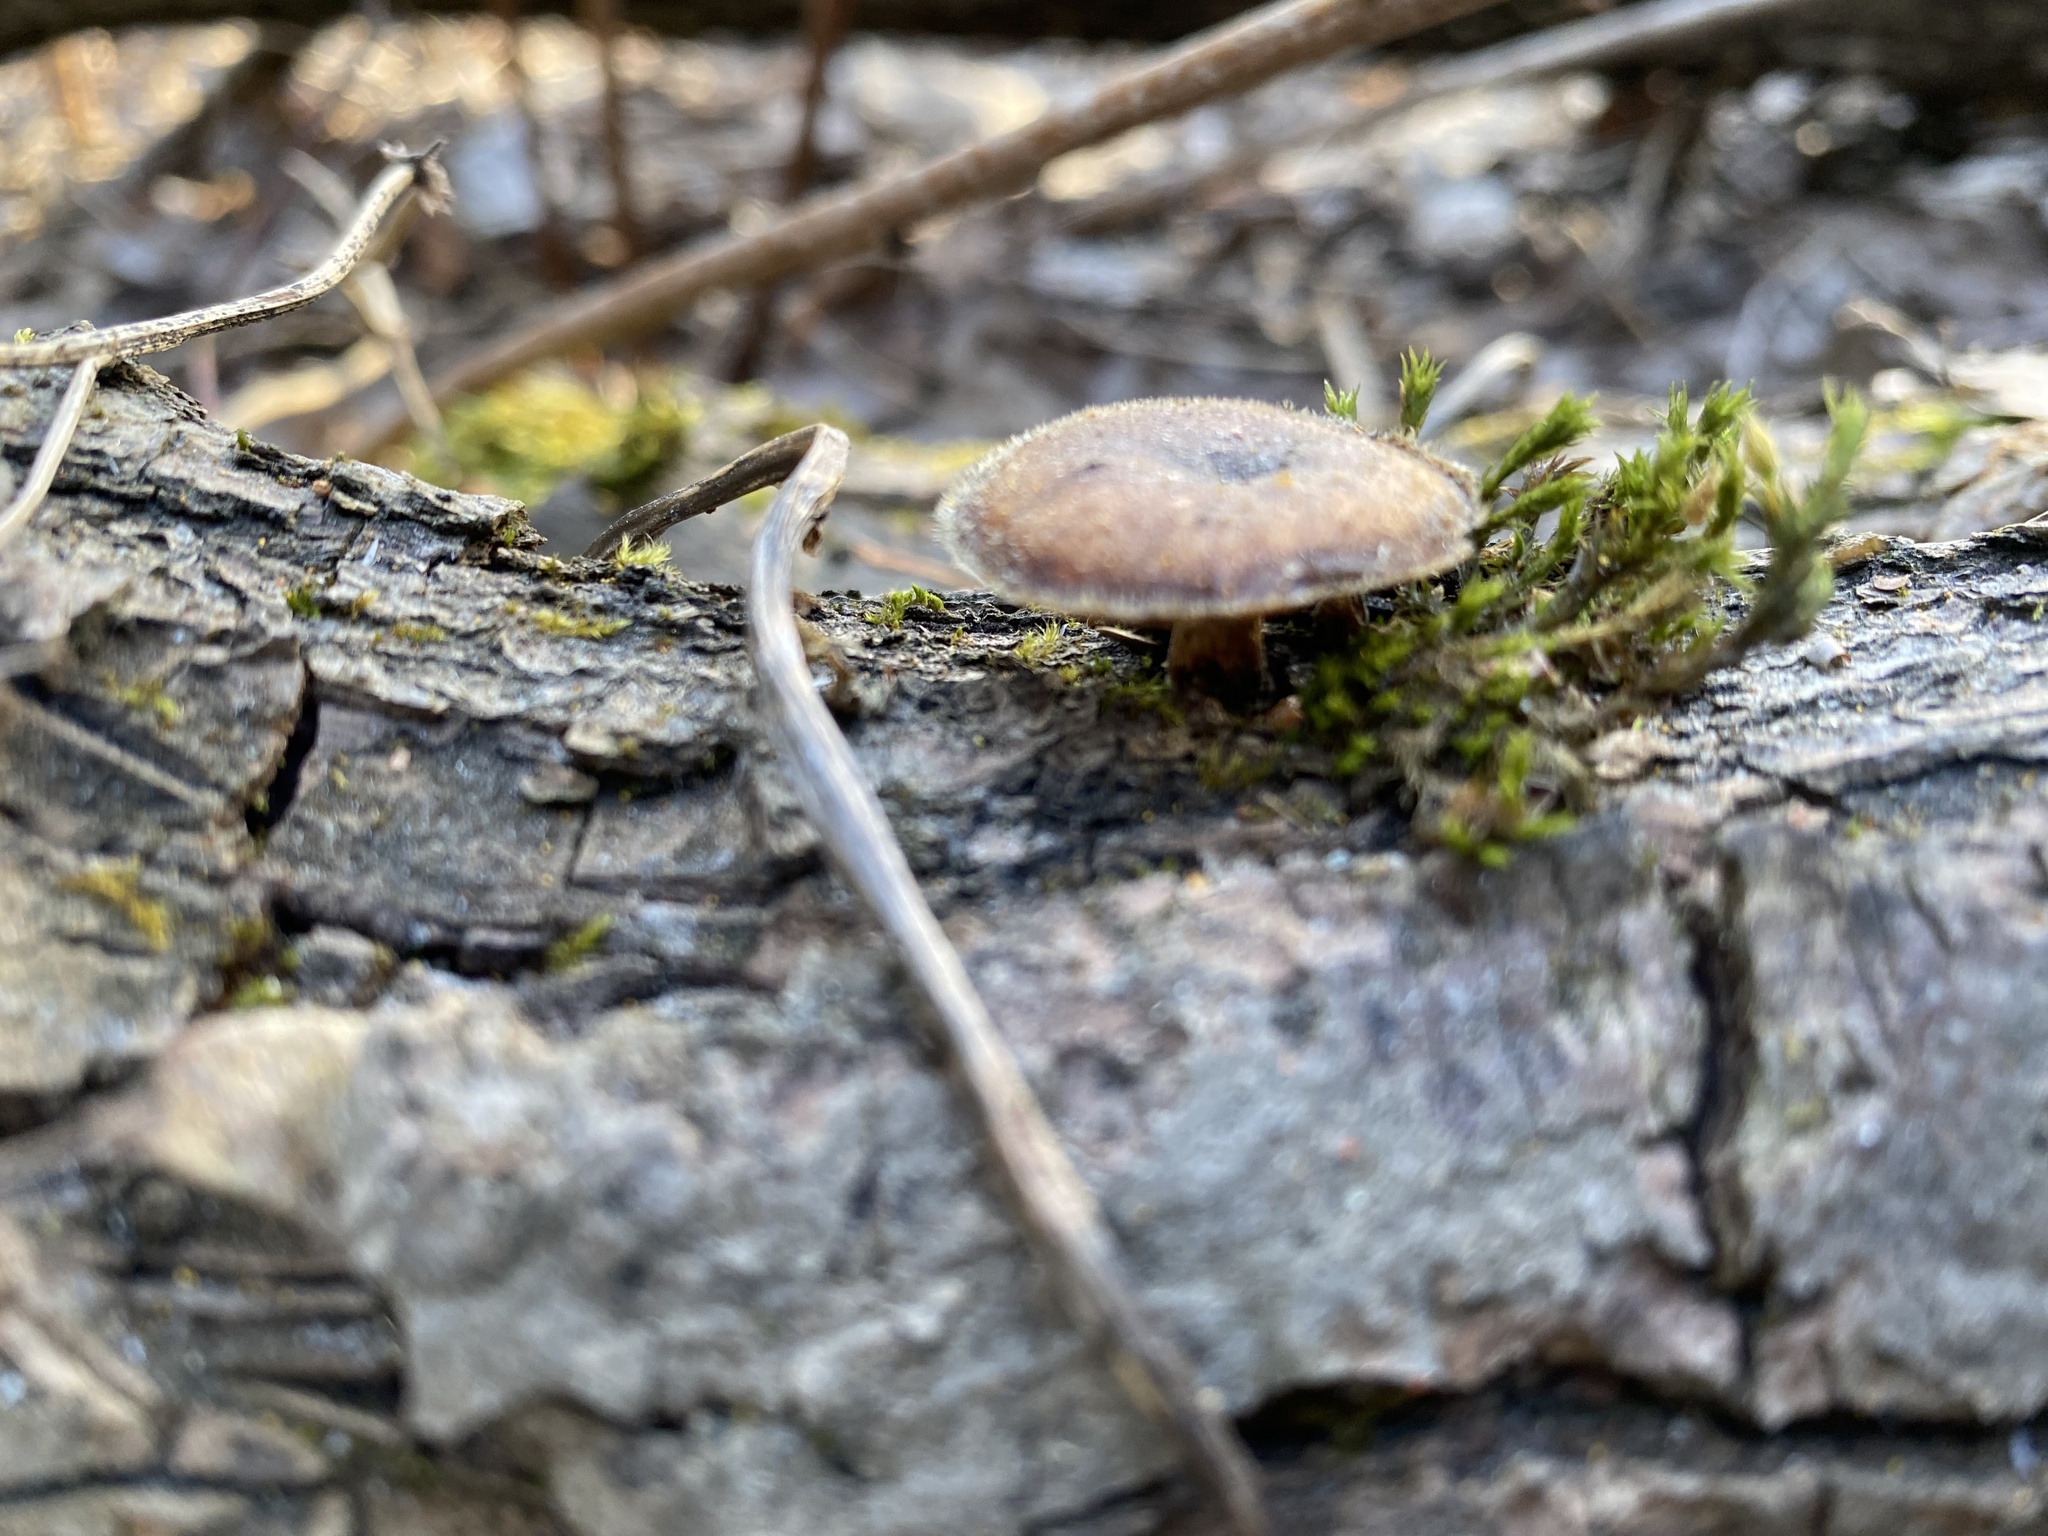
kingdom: Fungi
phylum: Basidiomycota
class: Agaricomycetes
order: Polyporales
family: Polyporaceae
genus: Lentinus
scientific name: Lentinus brumalis
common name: Winter polypore
